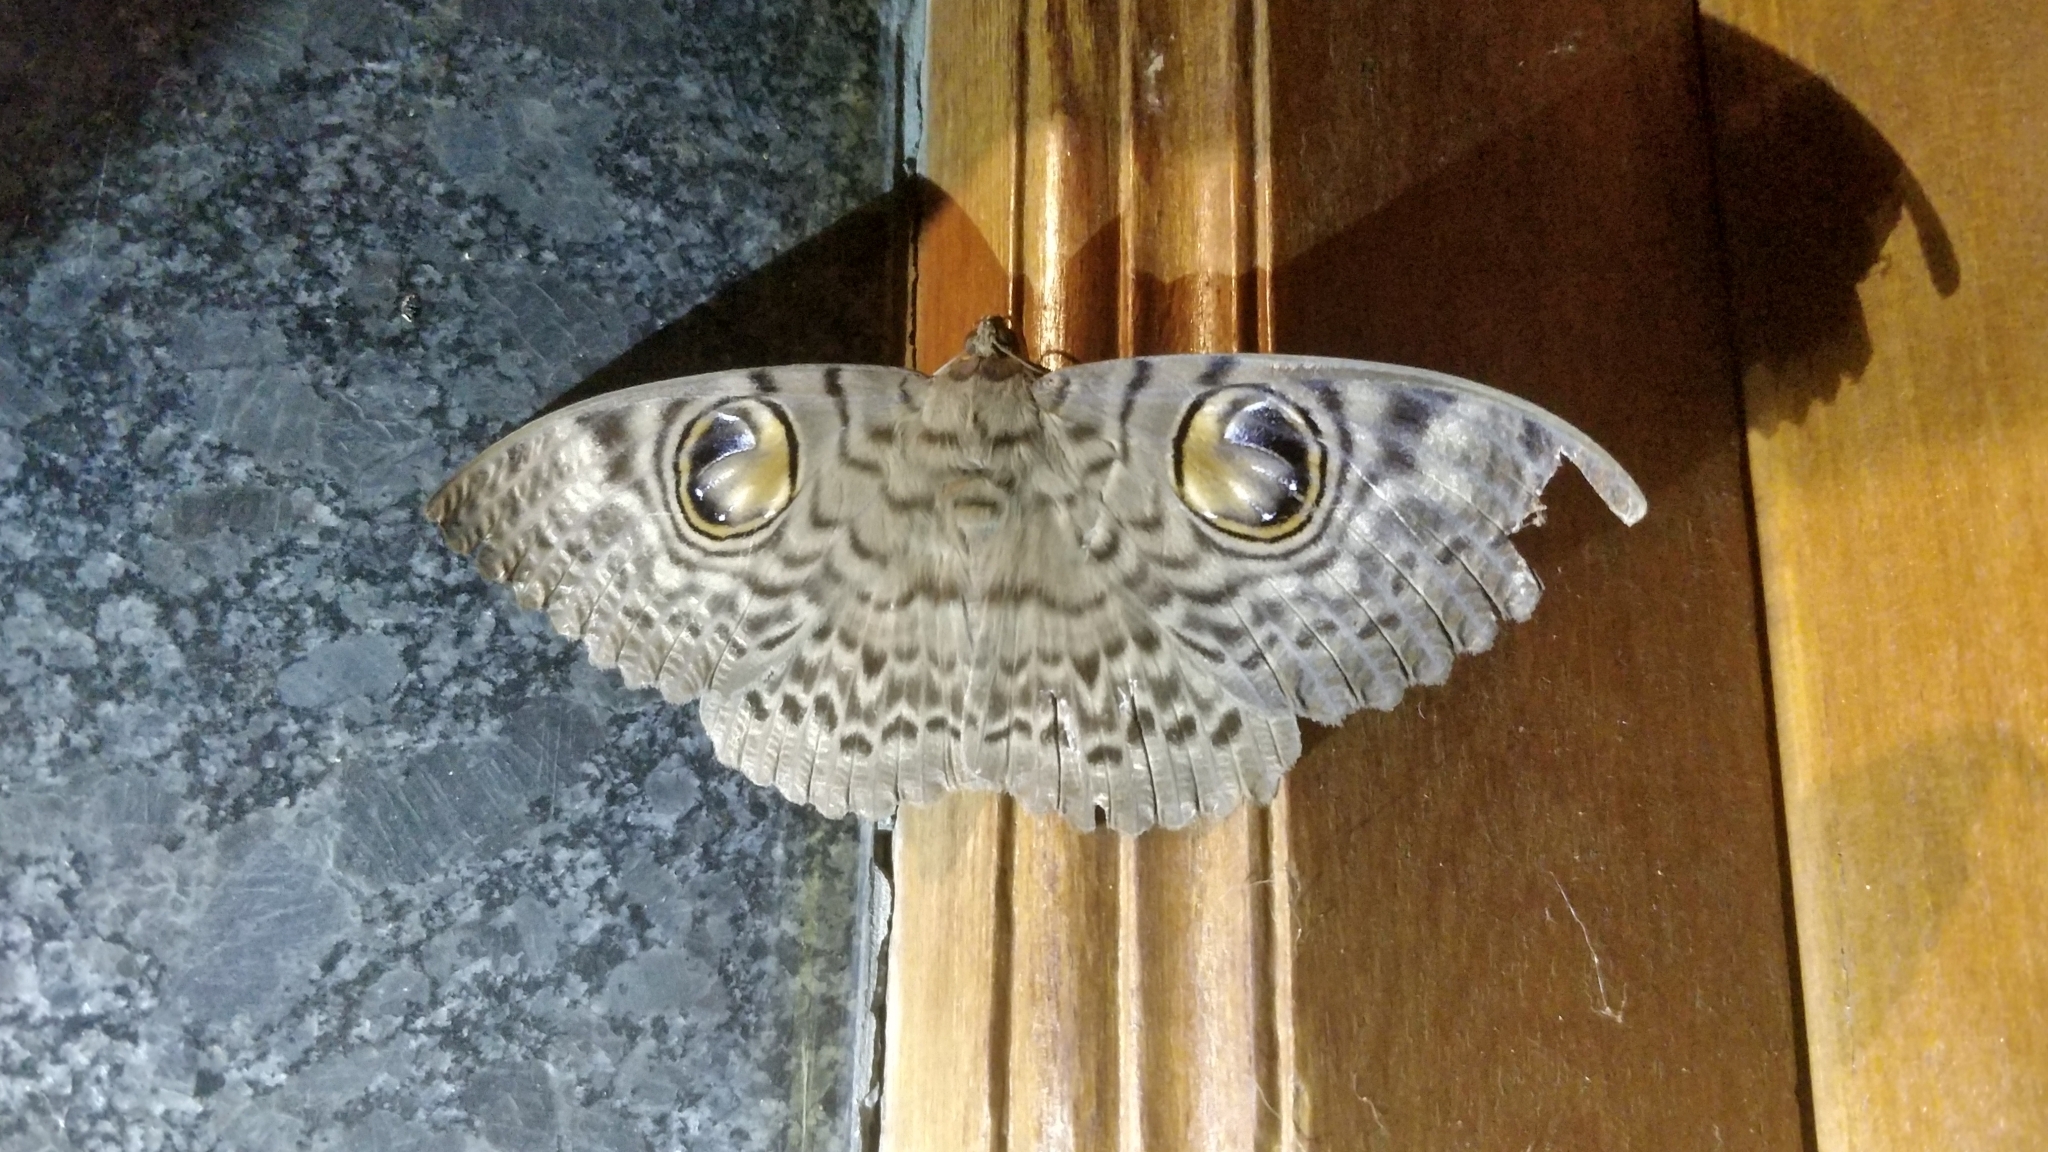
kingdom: Animalia
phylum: Arthropoda
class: Insecta
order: Lepidoptera
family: Erebidae
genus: Erebus
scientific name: Erebus macrops
